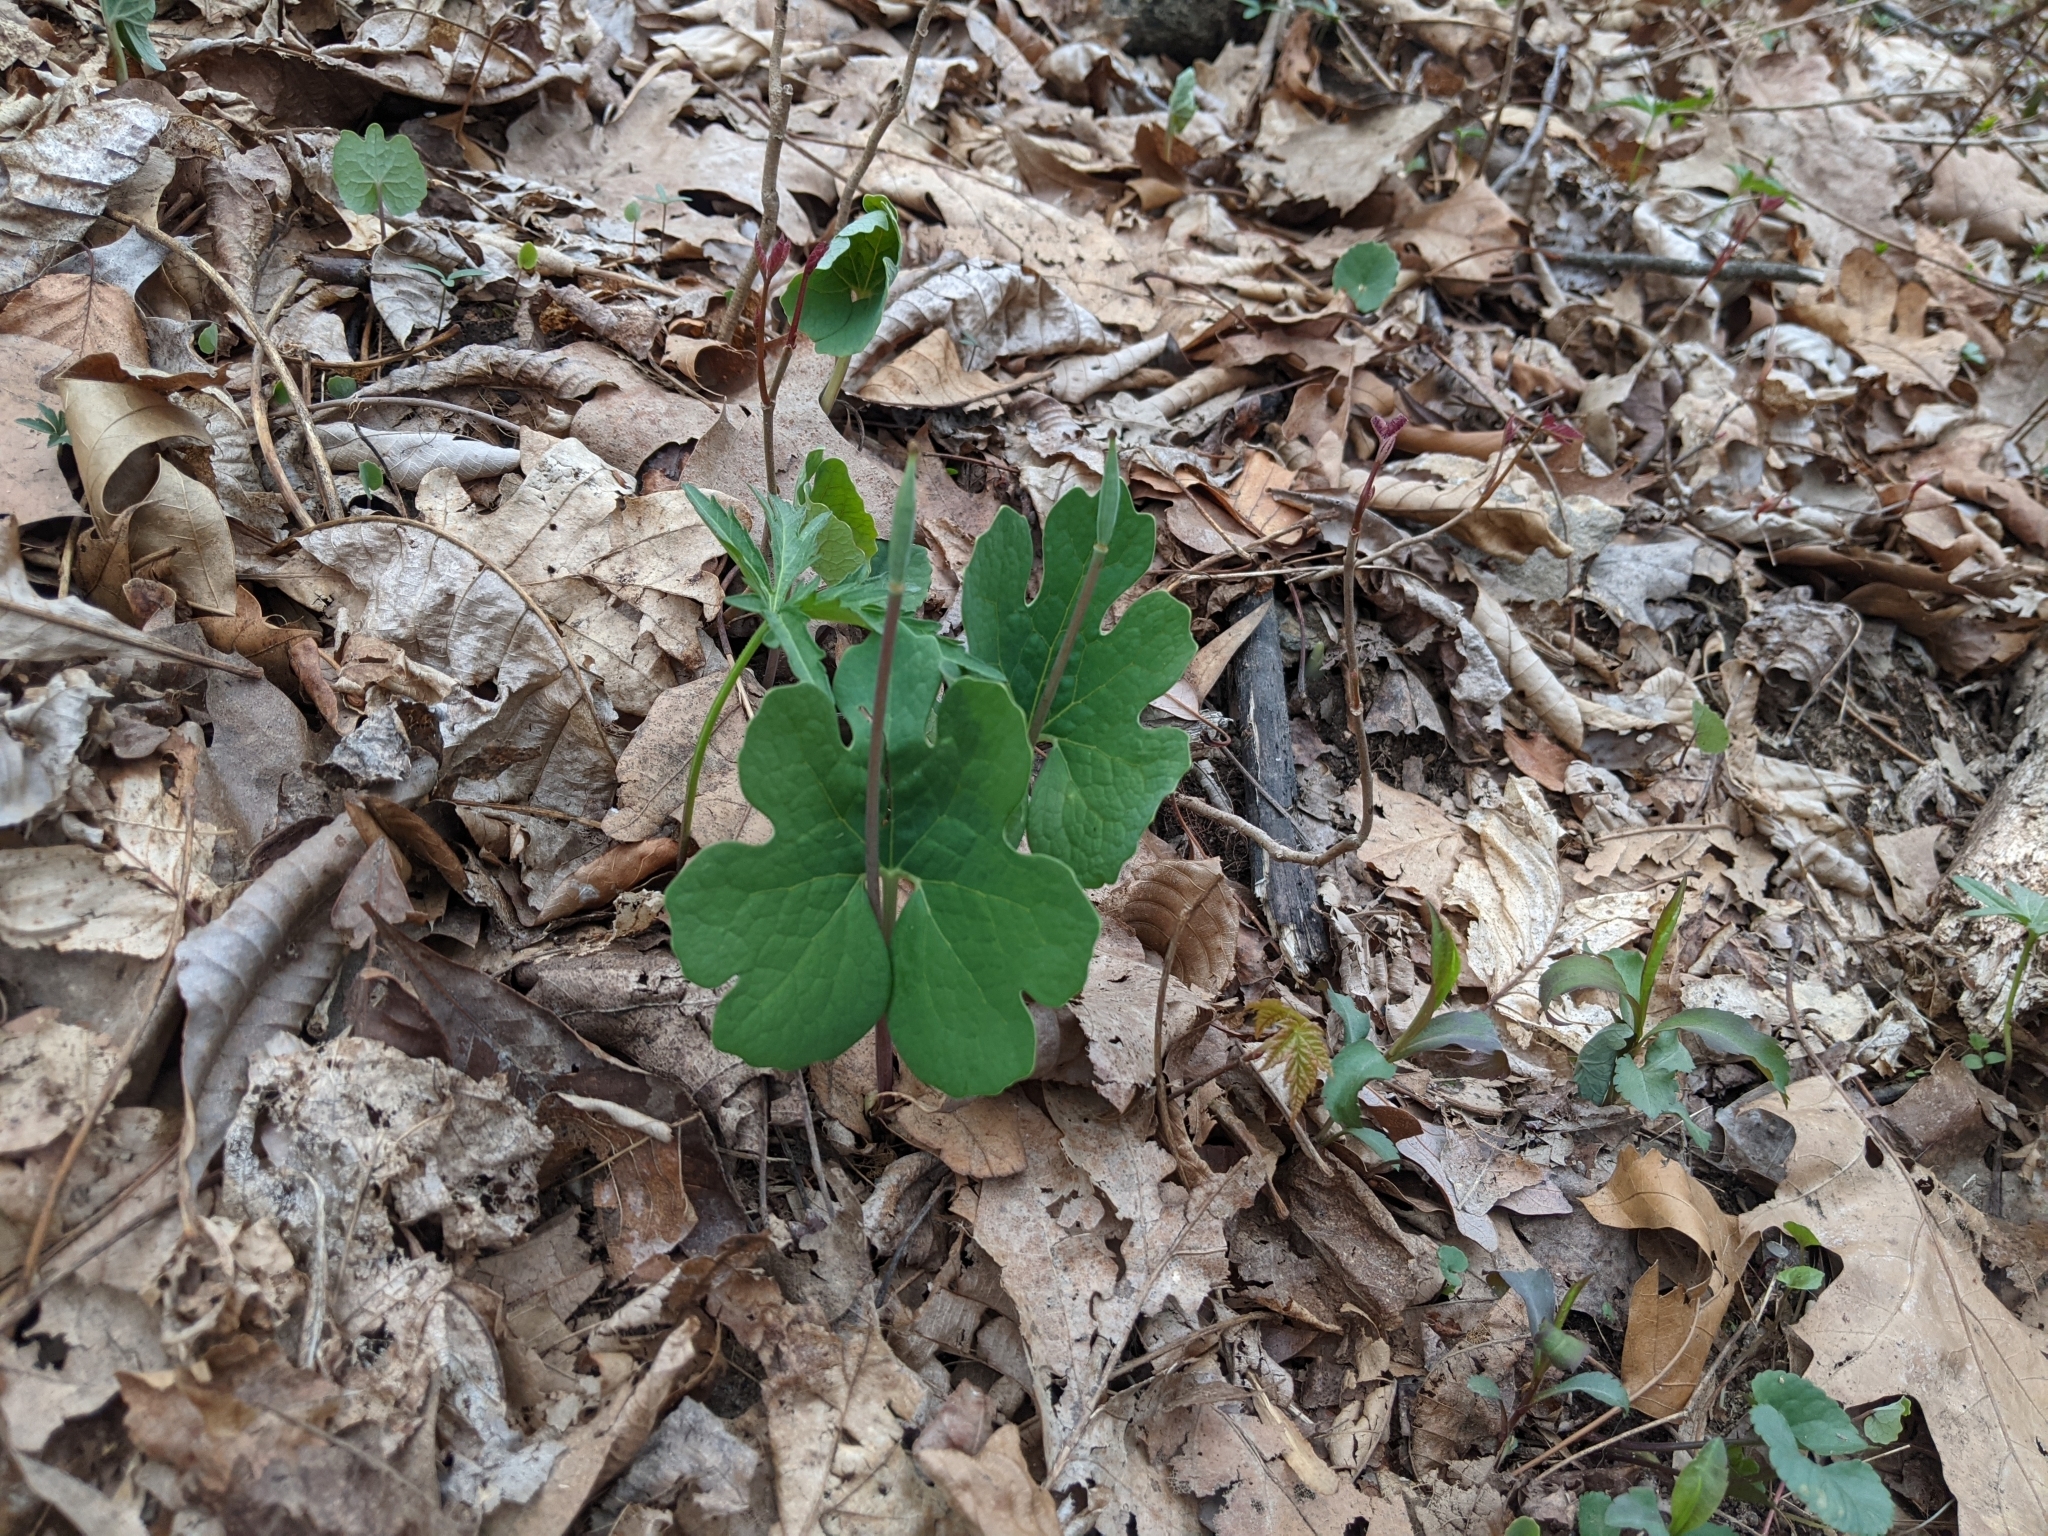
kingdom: Plantae
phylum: Tracheophyta
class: Magnoliopsida
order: Ranunculales
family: Papaveraceae
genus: Sanguinaria
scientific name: Sanguinaria canadensis
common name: Bloodroot
